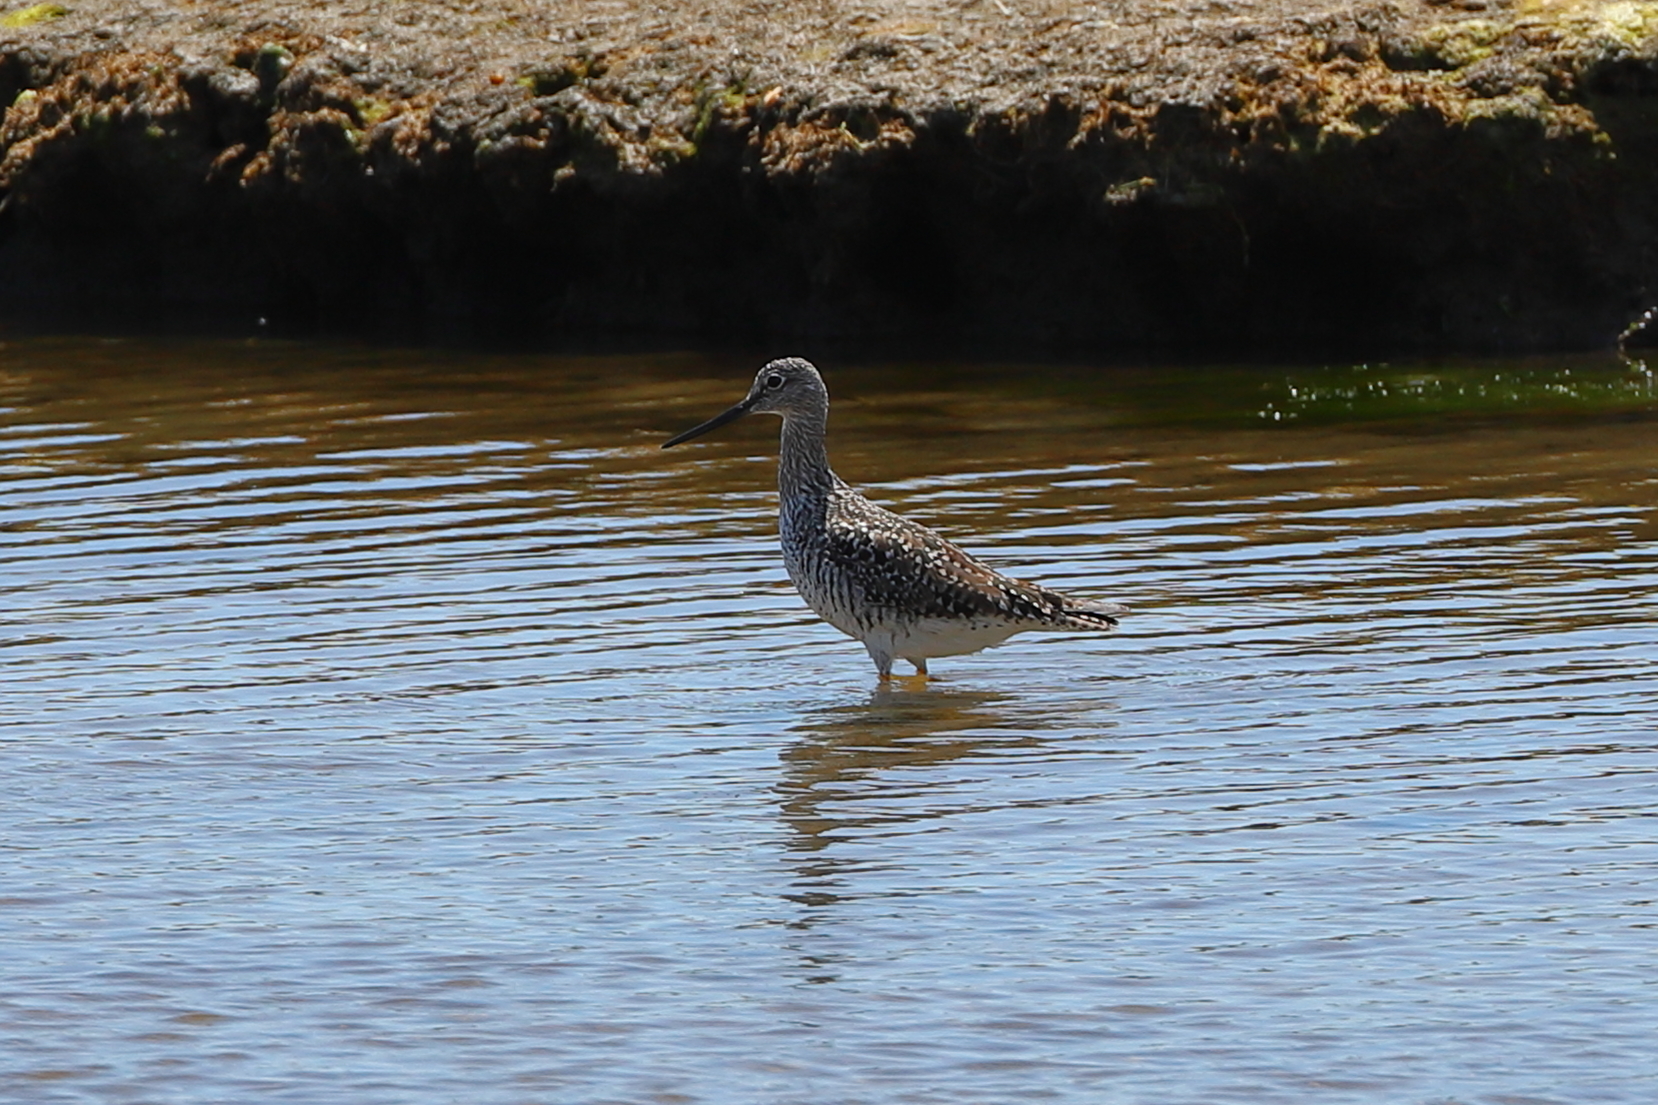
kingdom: Animalia
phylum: Chordata
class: Aves
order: Charadriiformes
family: Scolopacidae
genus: Tringa
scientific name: Tringa melanoleuca
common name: Greater yellowlegs
